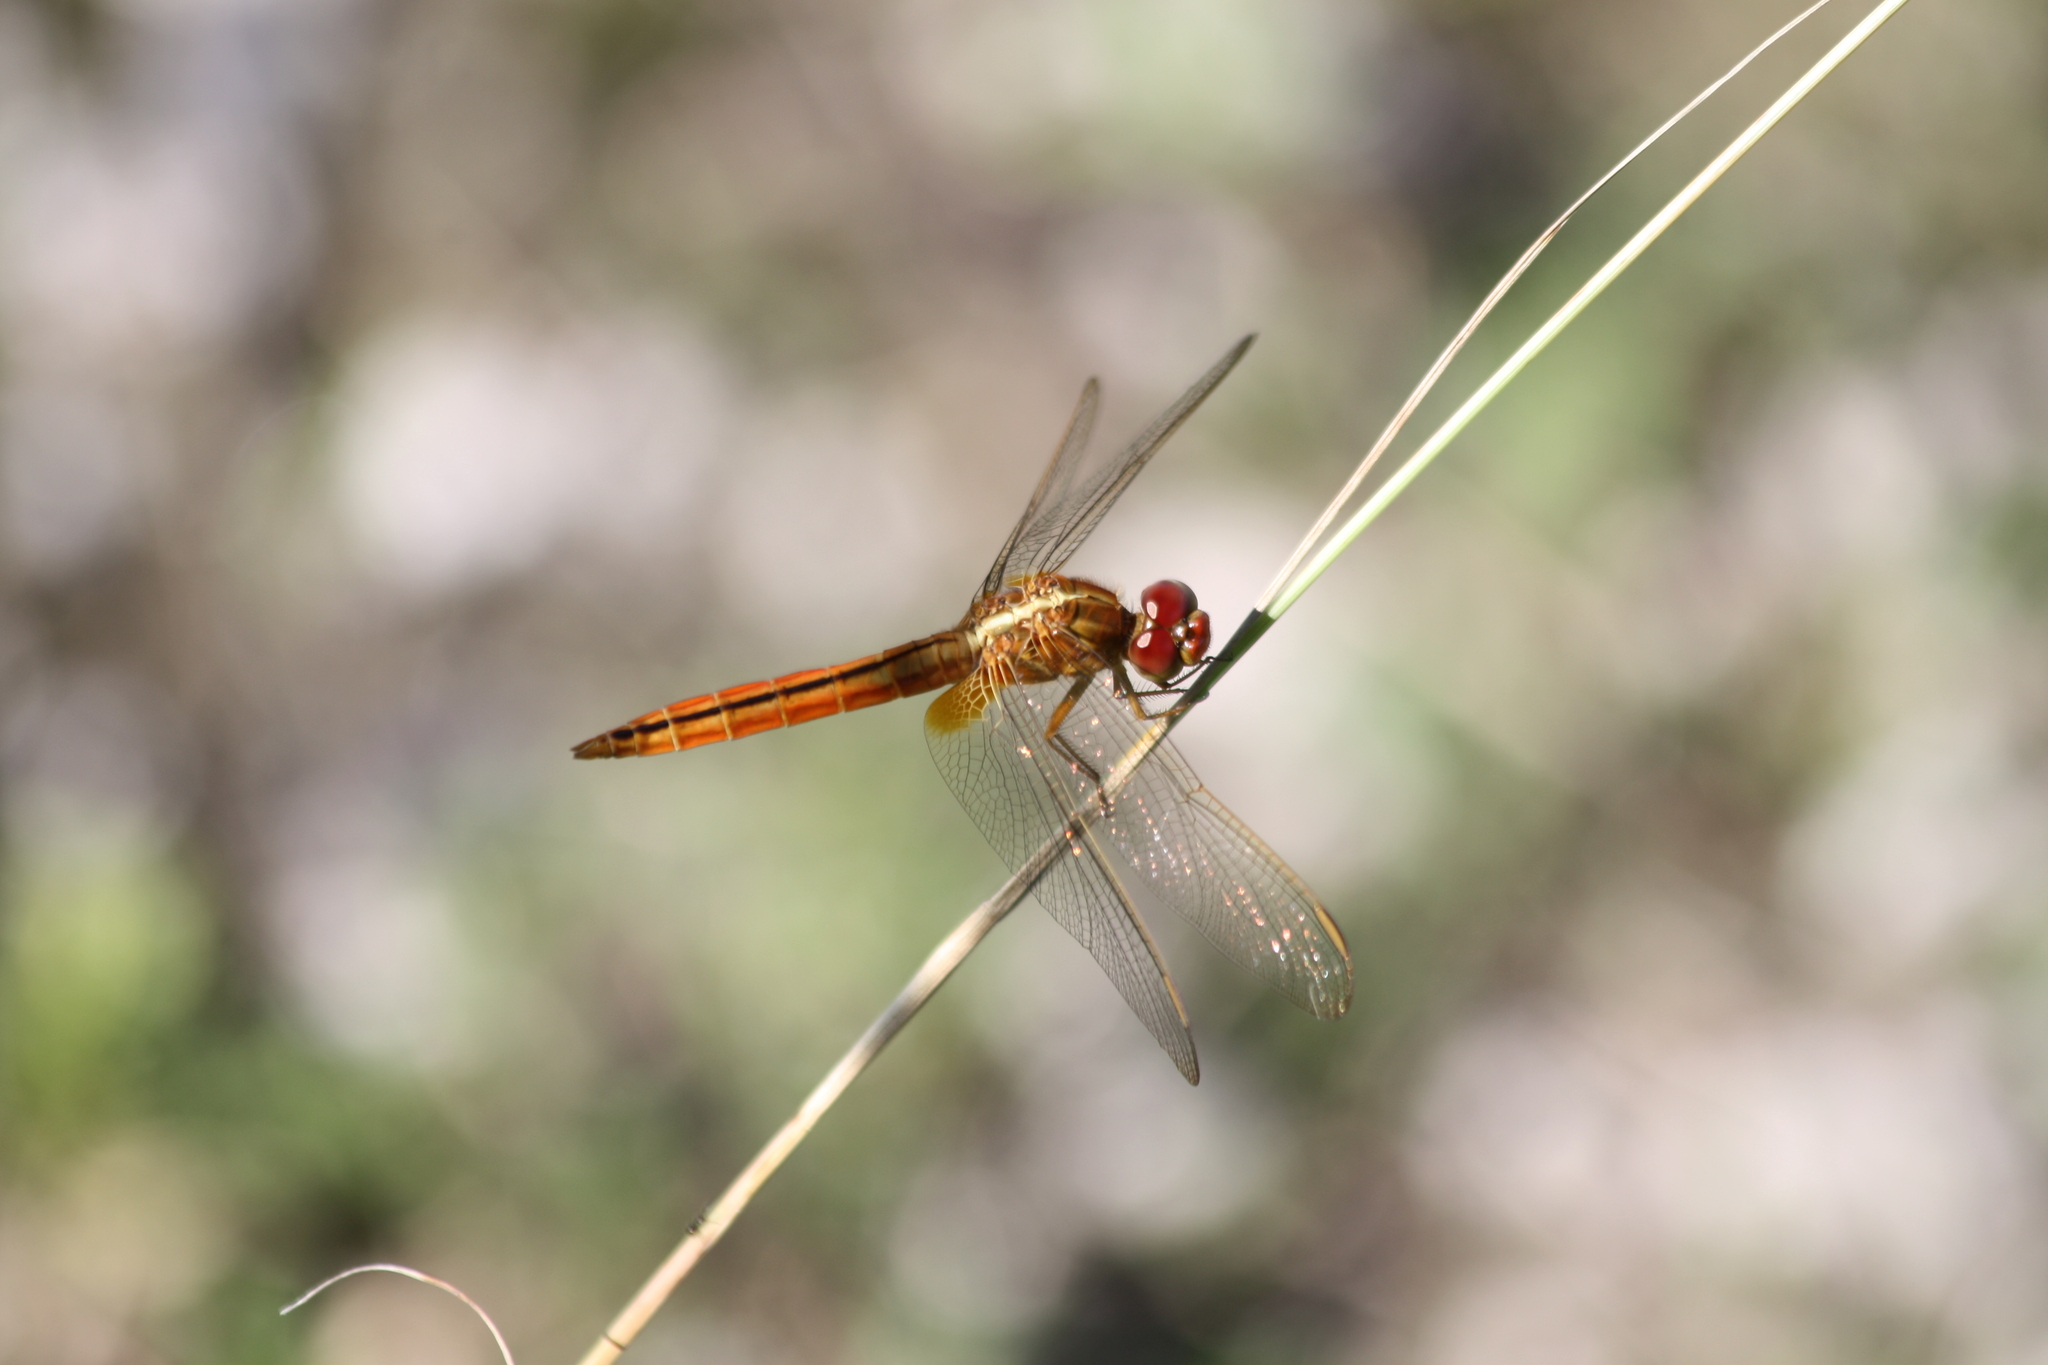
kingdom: Animalia
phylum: Arthropoda
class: Insecta
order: Odonata
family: Libellulidae
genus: Crocothemis
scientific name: Crocothemis servilia
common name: Scarlet skimmer
